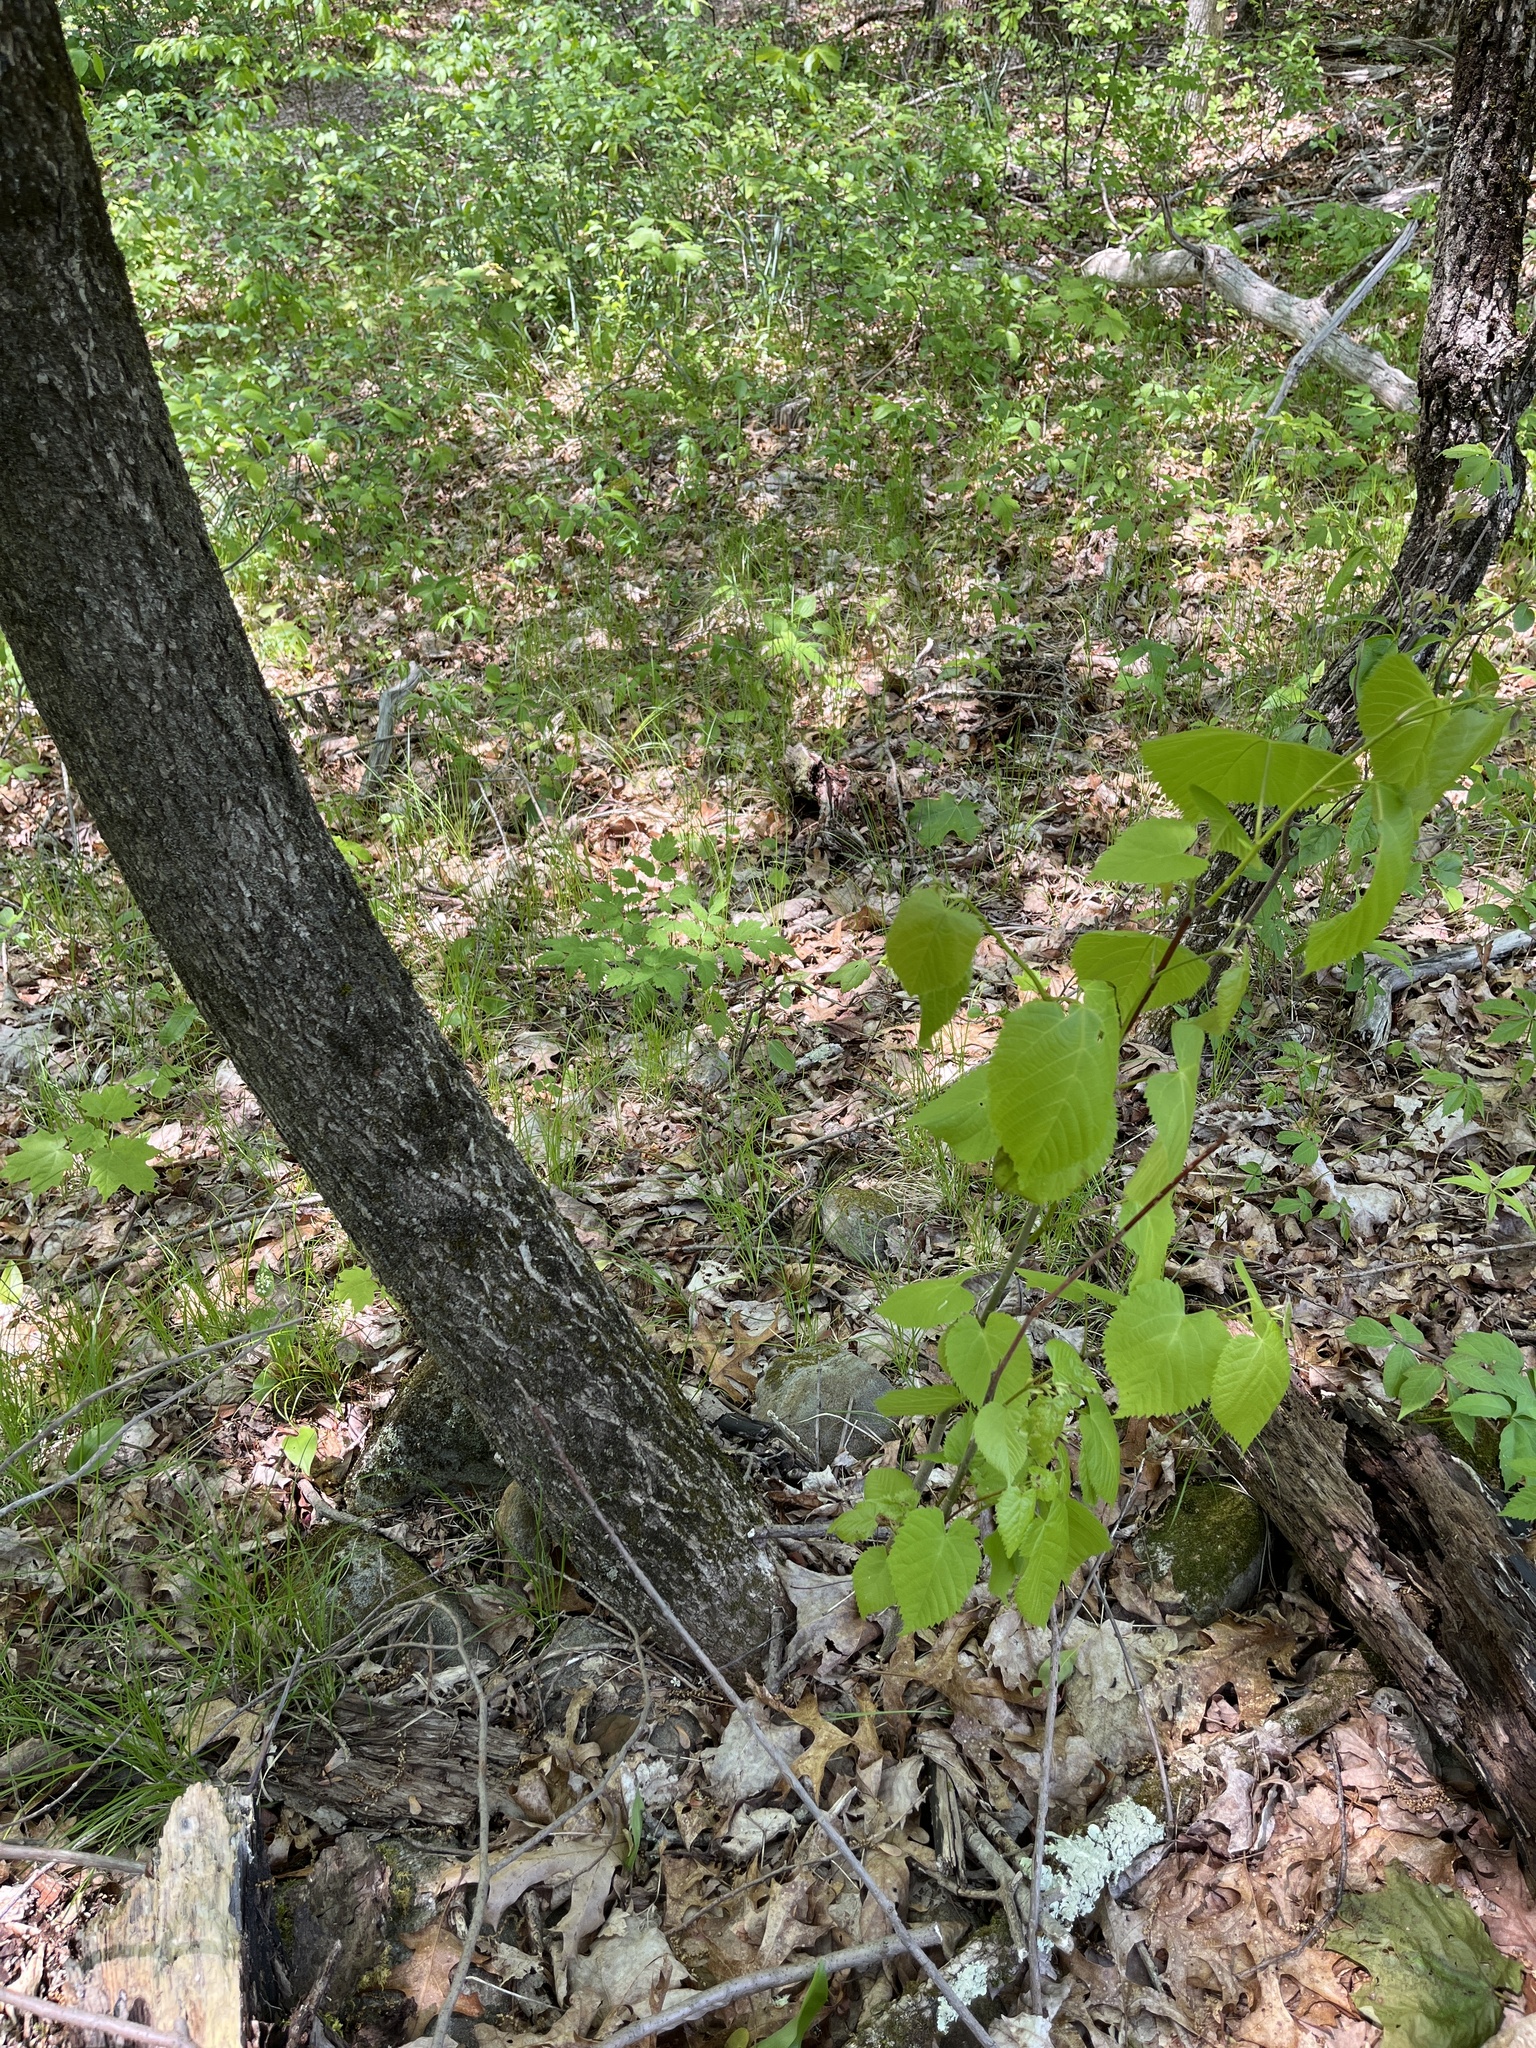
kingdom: Plantae
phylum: Tracheophyta
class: Magnoliopsida
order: Malvales
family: Malvaceae
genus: Tilia
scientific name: Tilia americana
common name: Basswood
